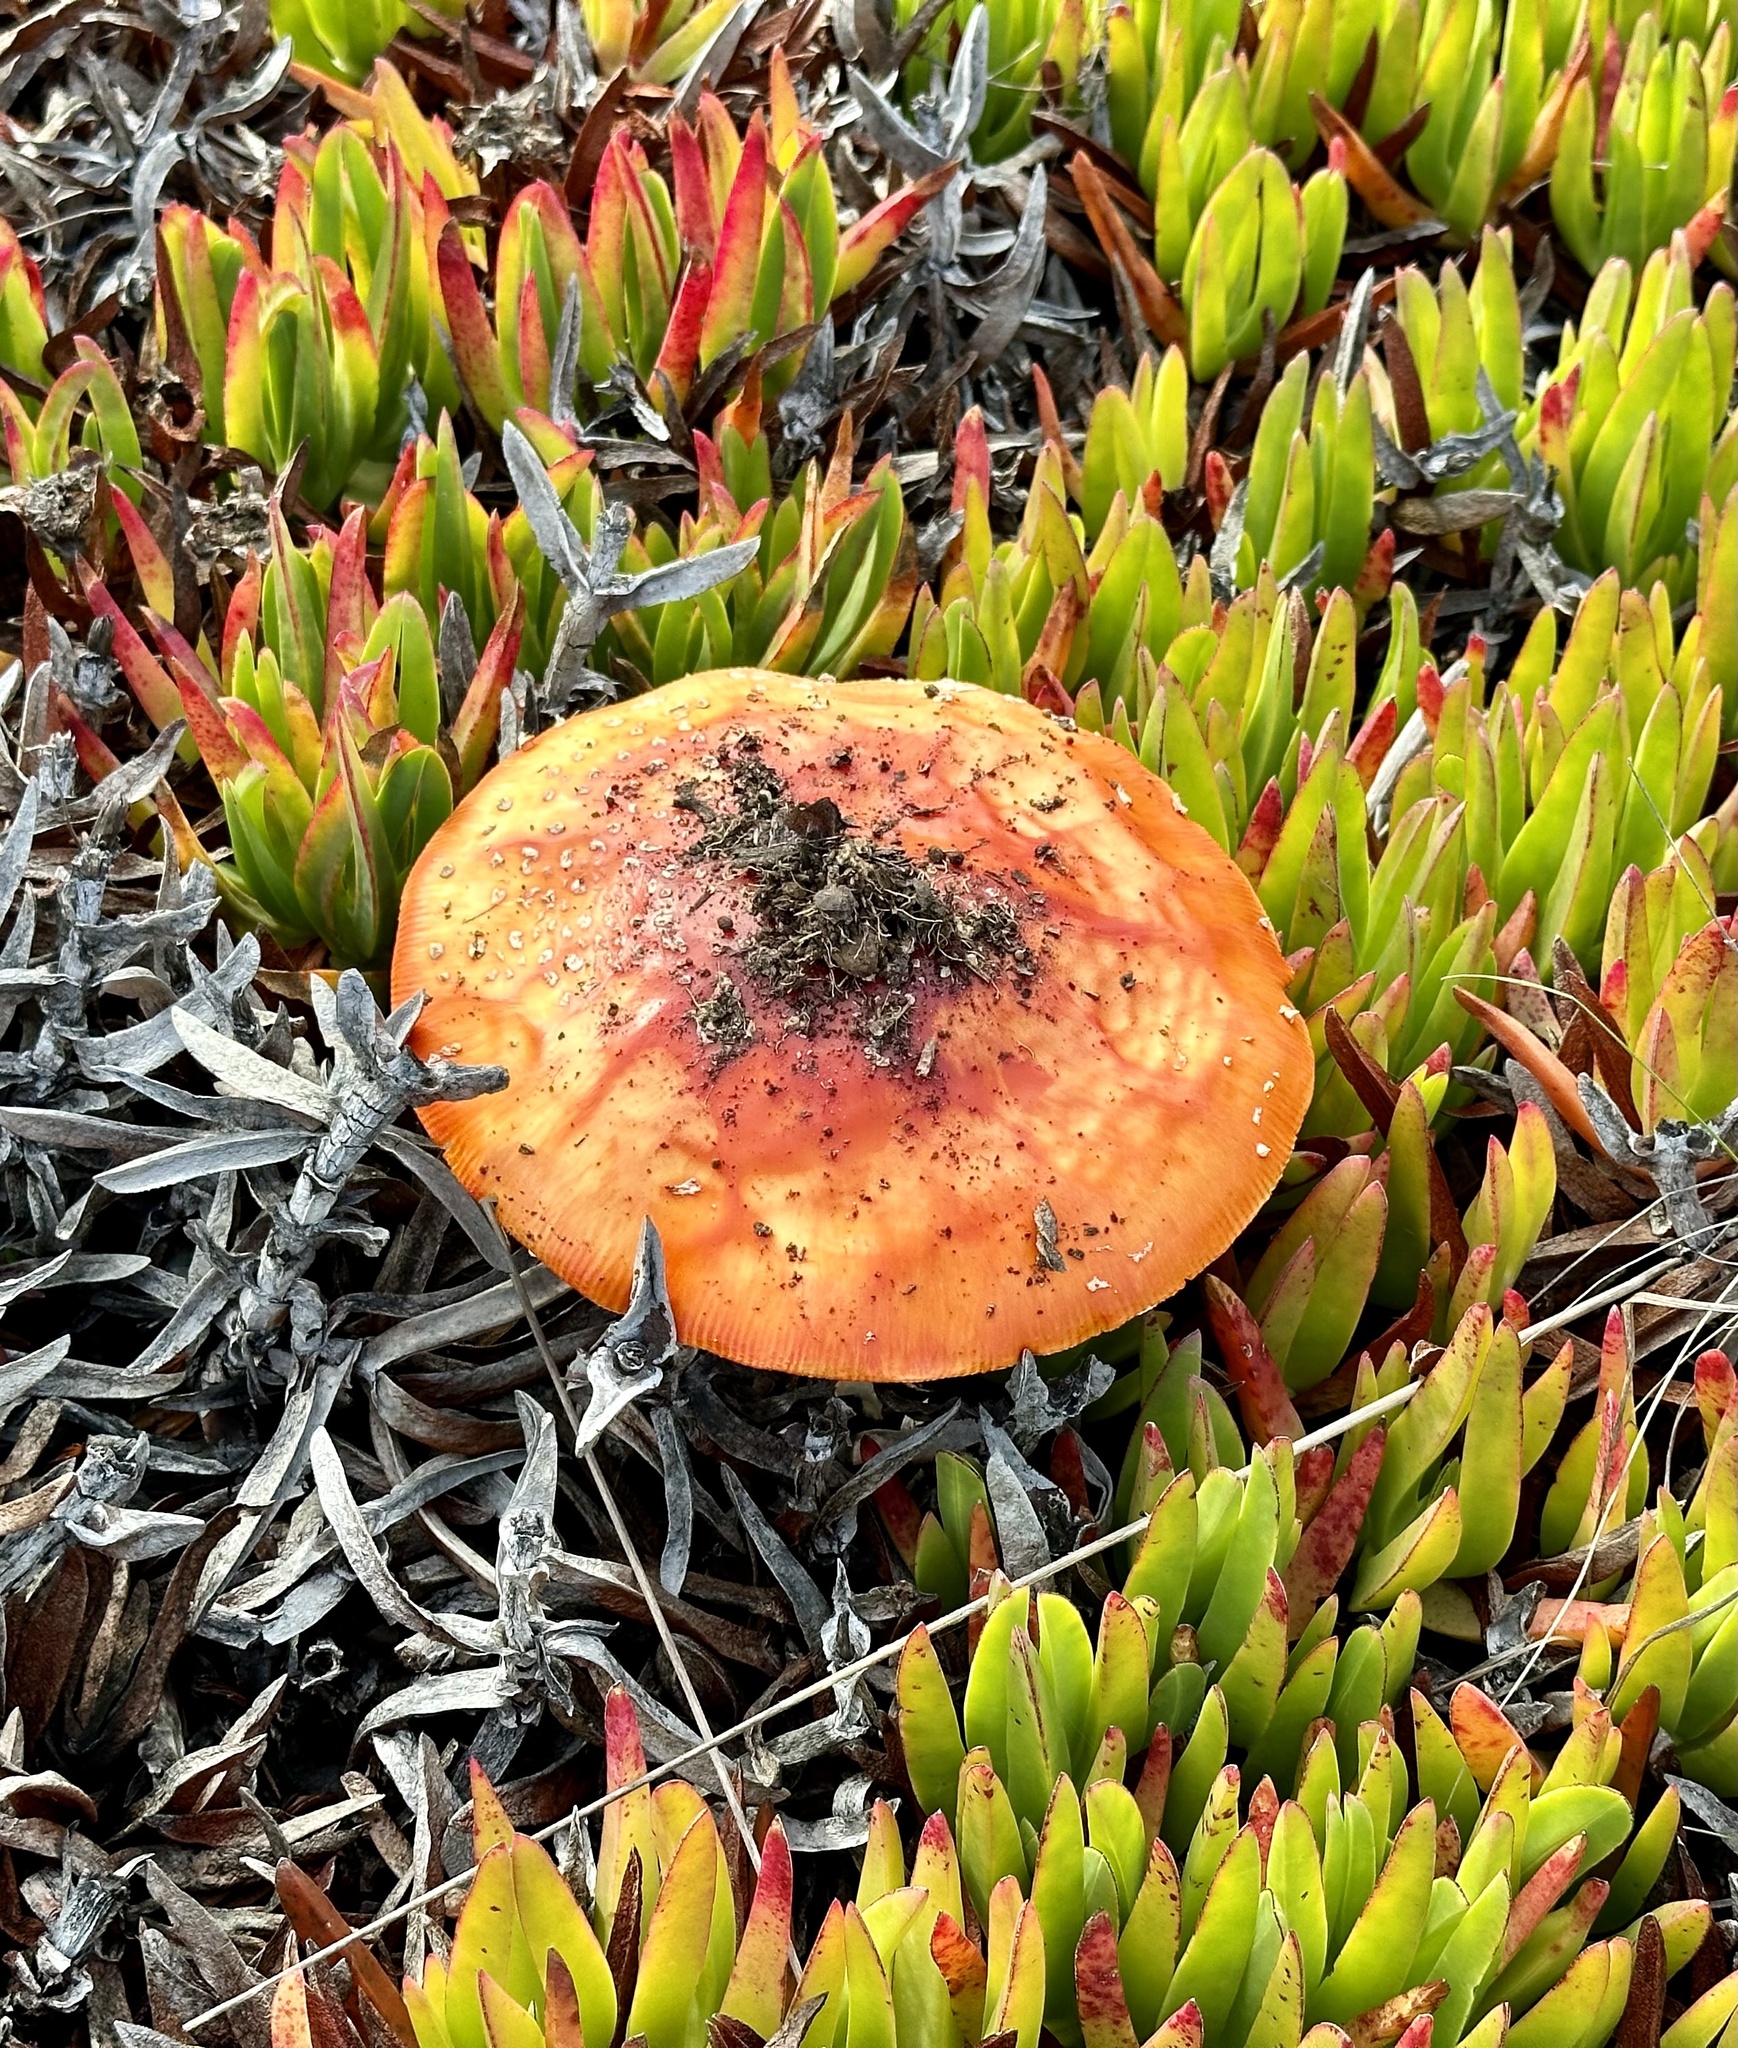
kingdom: Fungi
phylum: Basidiomycota
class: Agaricomycetes
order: Agaricales
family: Amanitaceae
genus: Amanita
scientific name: Amanita muscaria
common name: Fly agaric
